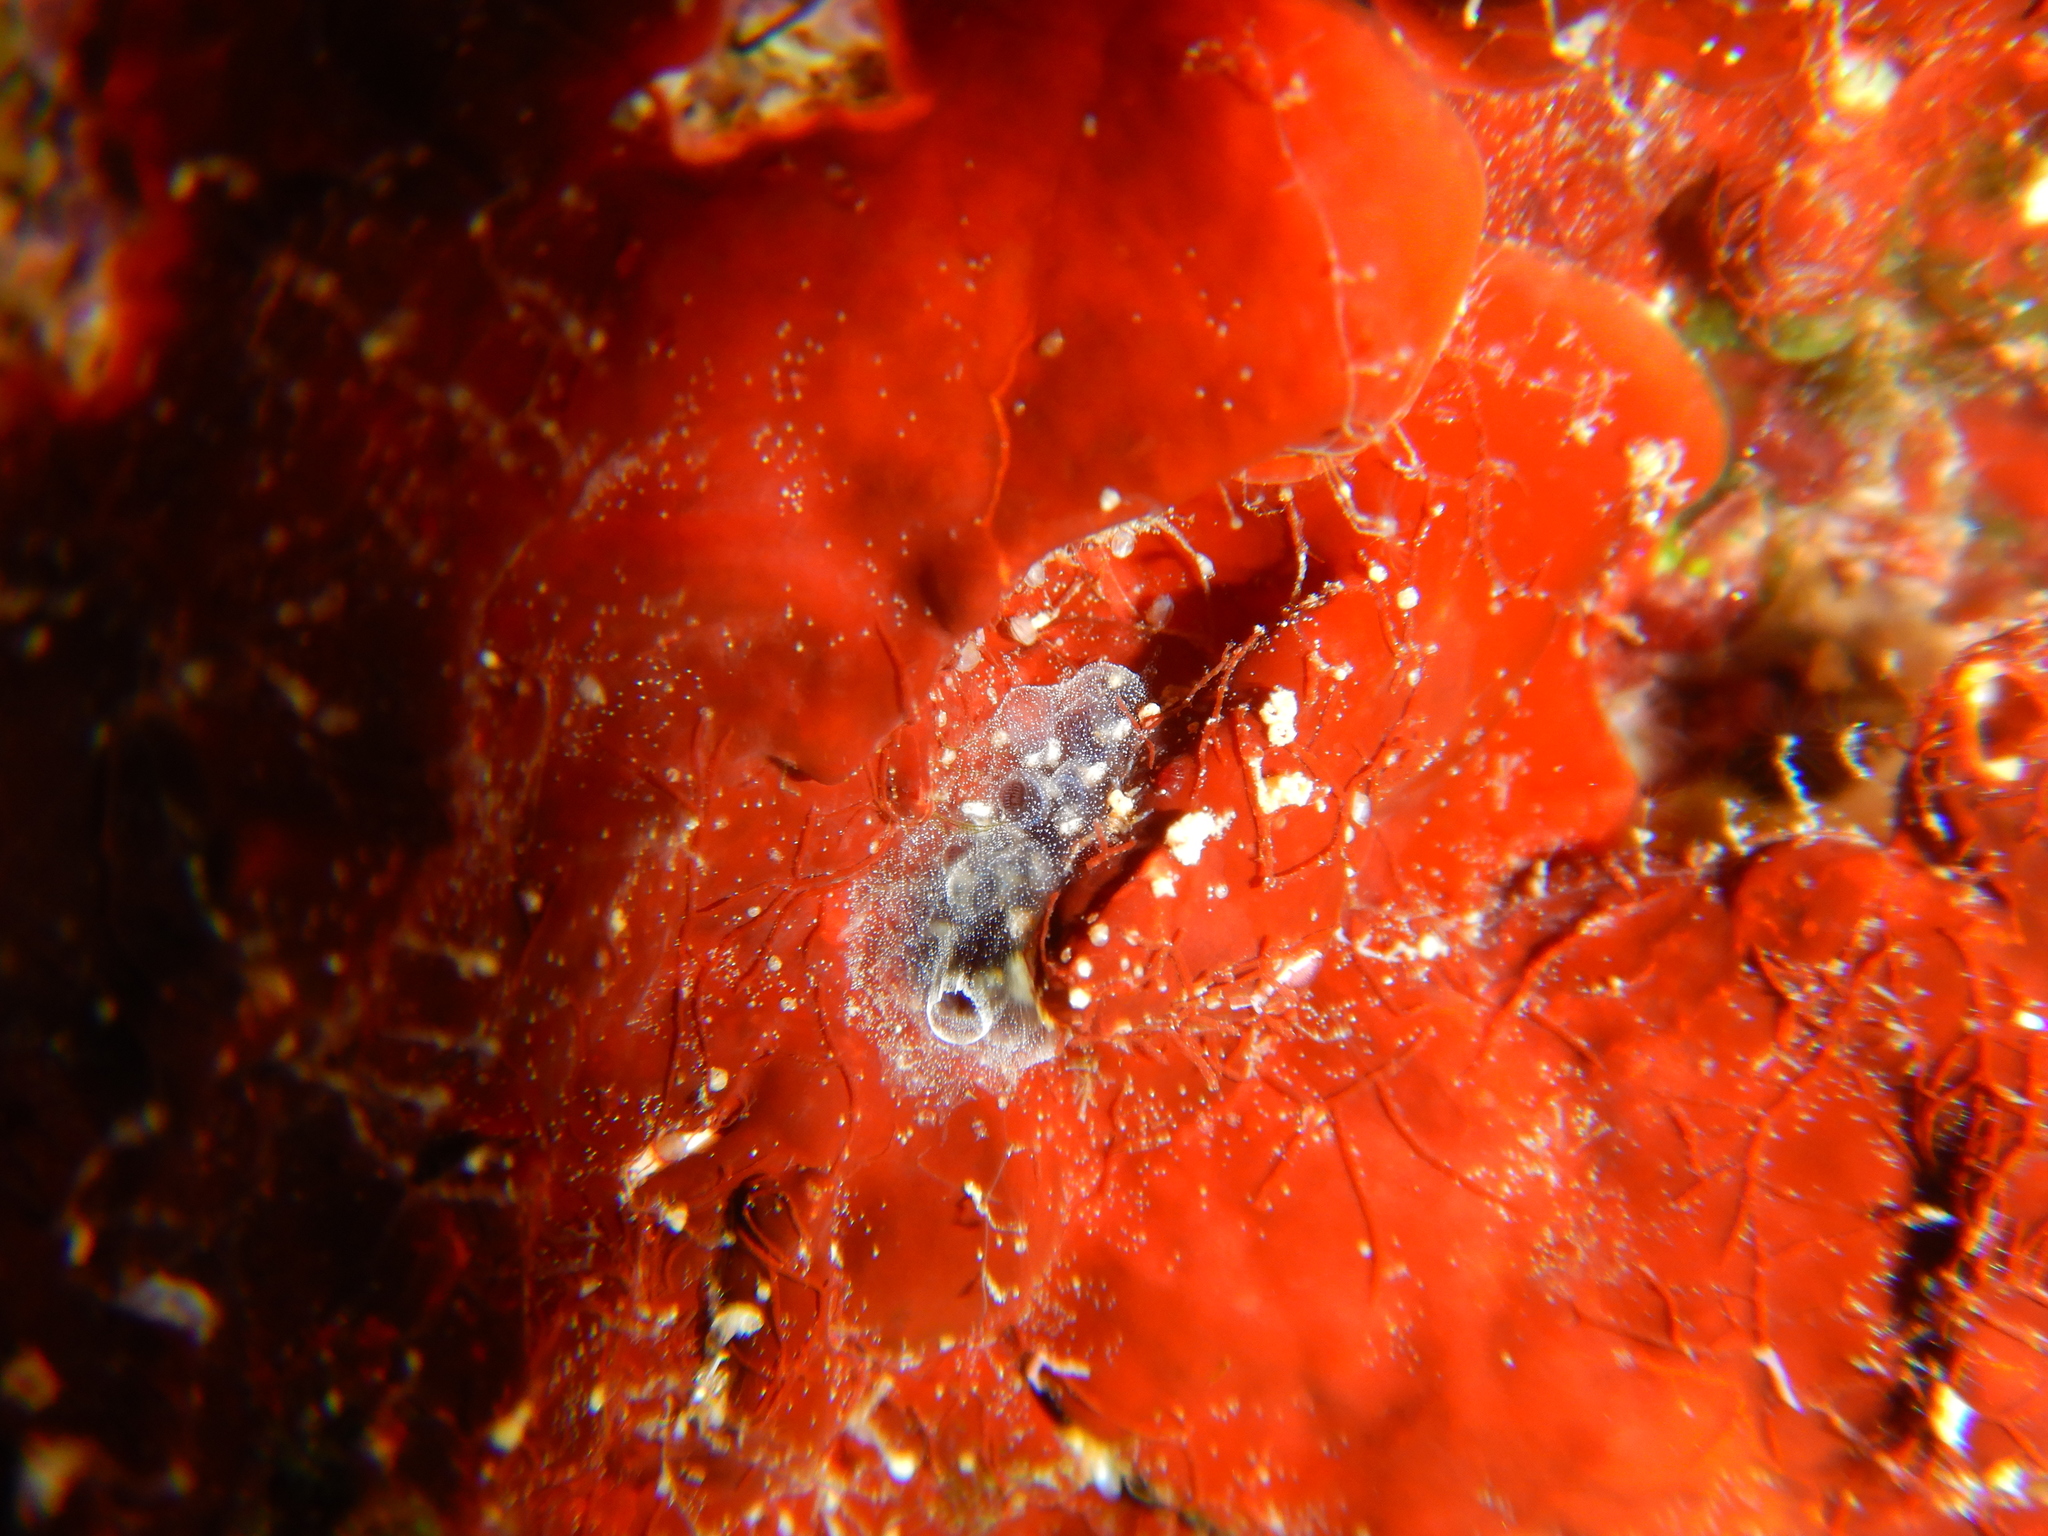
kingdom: Animalia
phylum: Chordata
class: Ascidiacea
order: Aplousobranchia
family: Didemnidae
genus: Diplosoma
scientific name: Diplosoma listerianum
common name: Compound sea squirt
